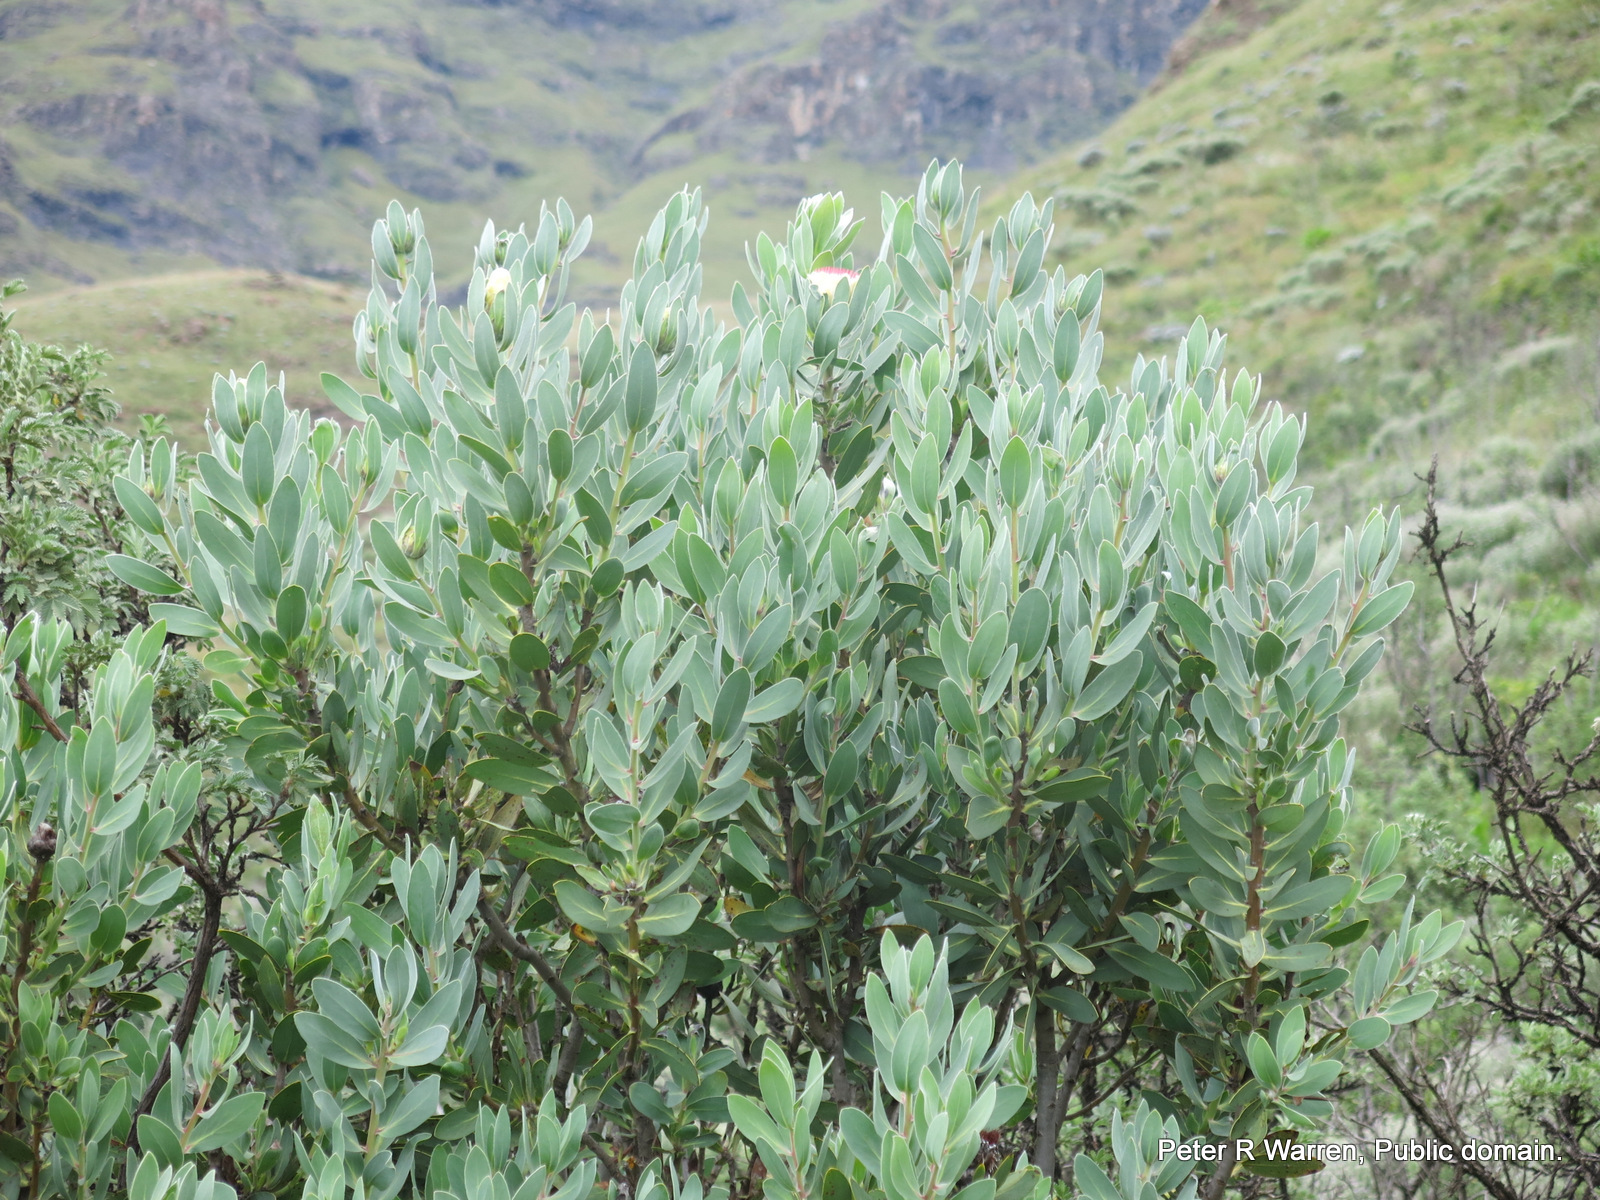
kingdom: Plantae
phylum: Tracheophyta
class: Magnoliopsida
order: Proteales
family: Proteaceae
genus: Protea
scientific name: Protea subvestita
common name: Lip-flower sugarbush
